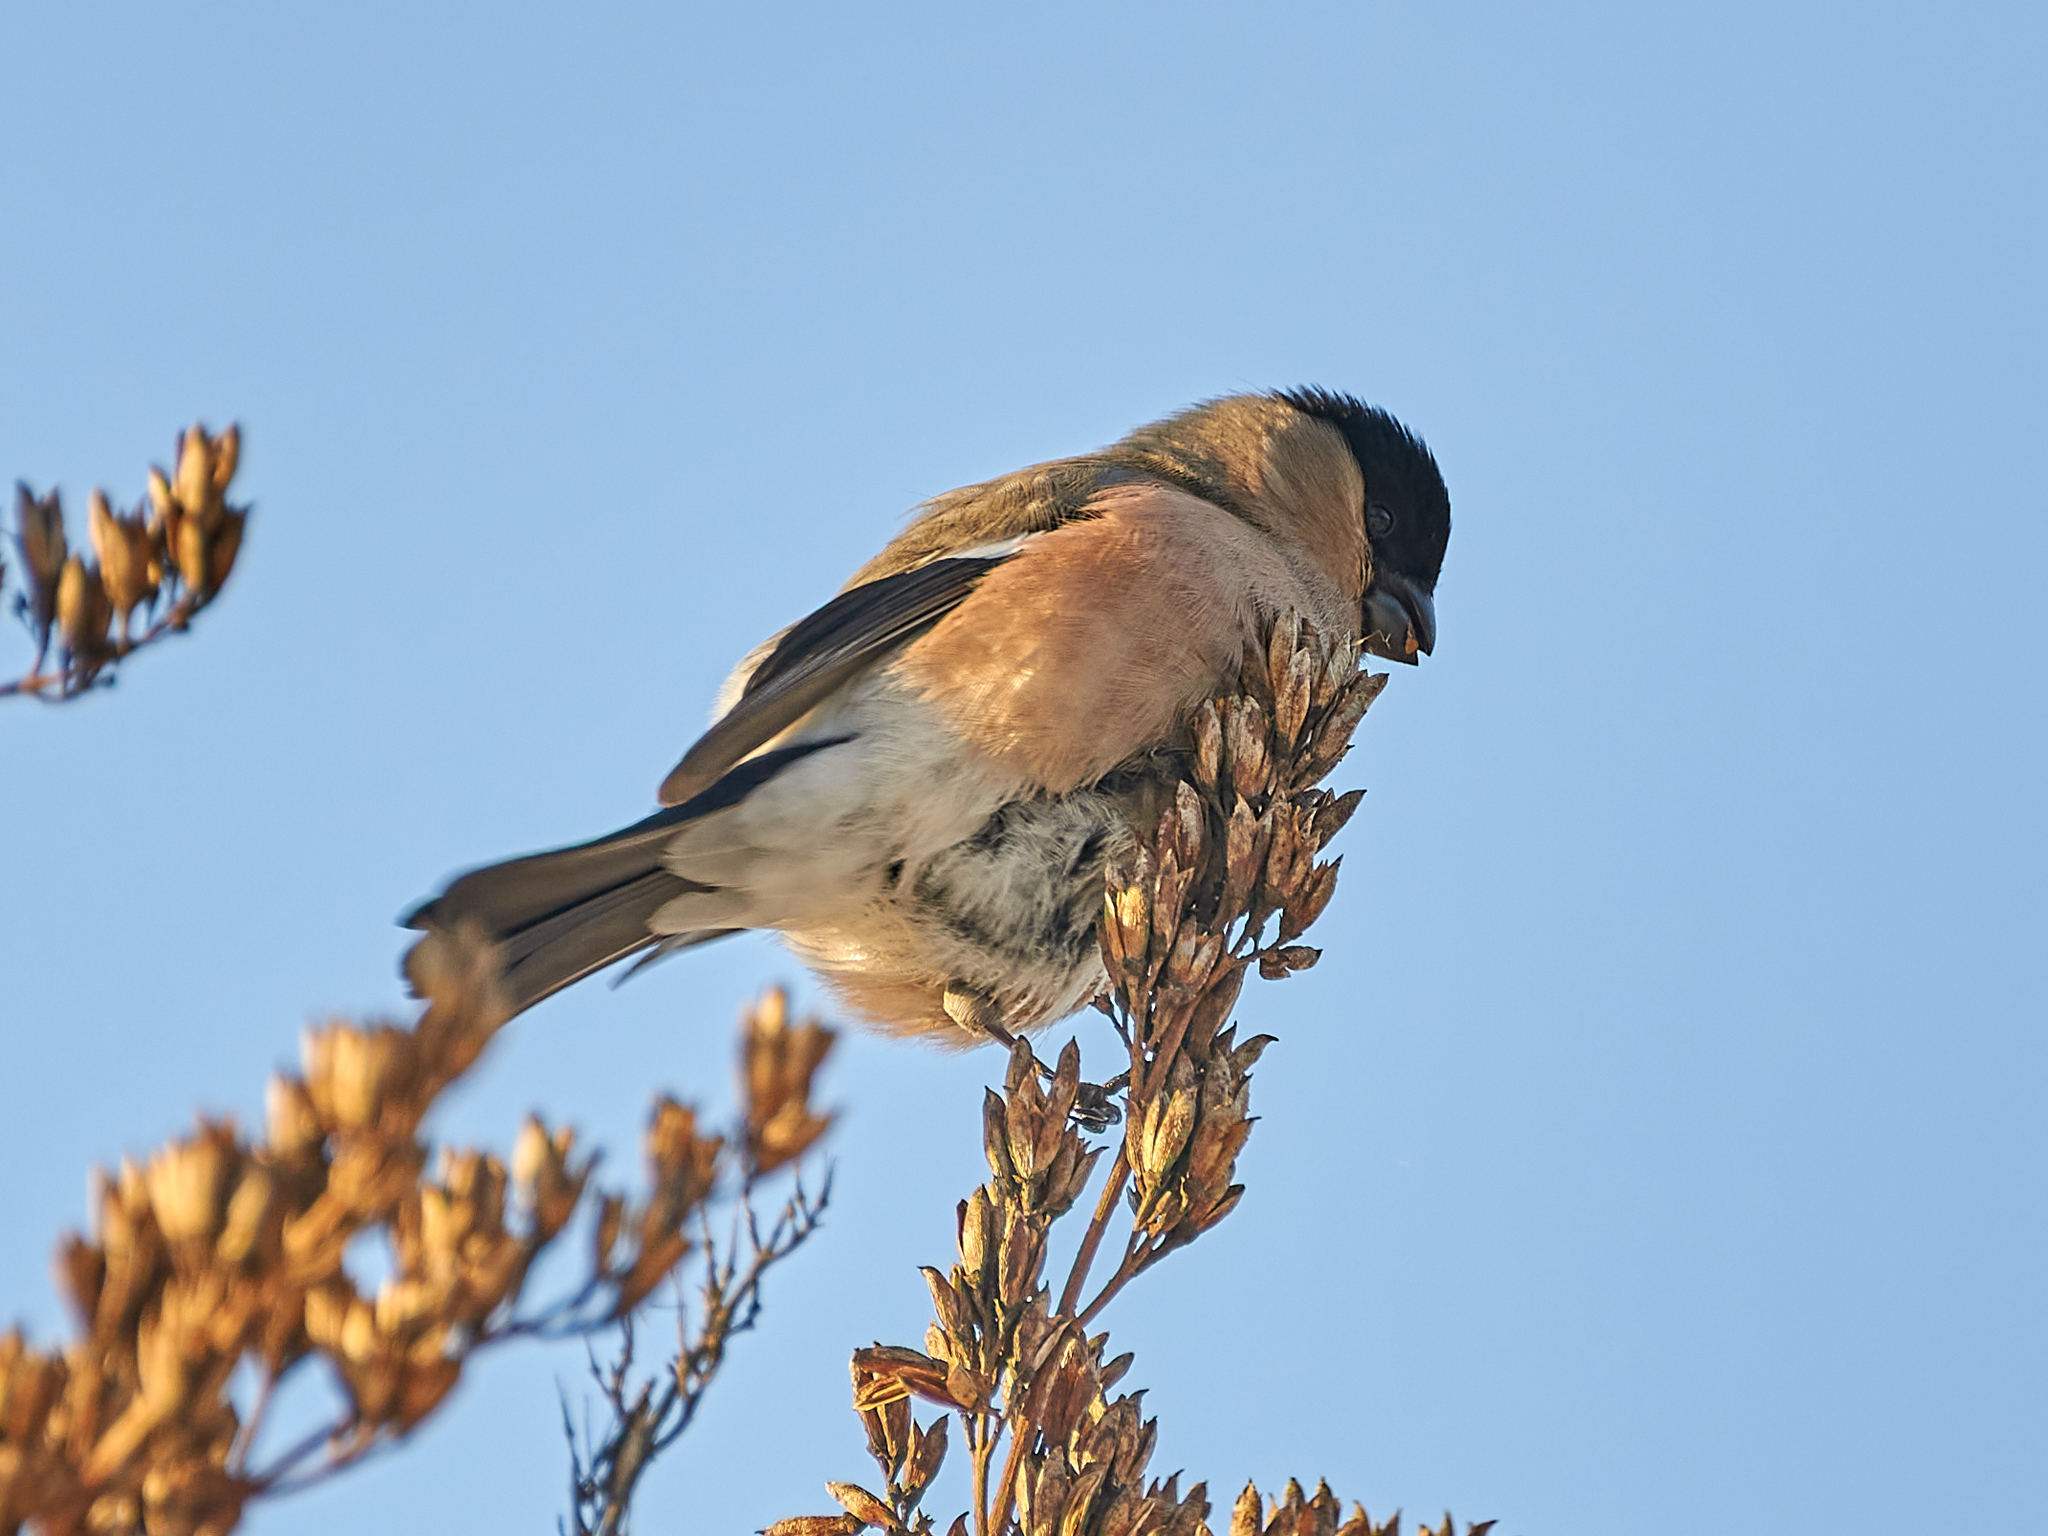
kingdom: Animalia
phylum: Chordata
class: Aves
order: Passeriformes
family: Fringillidae
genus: Pyrrhula
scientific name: Pyrrhula pyrrhula
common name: Eurasian bullfinch
